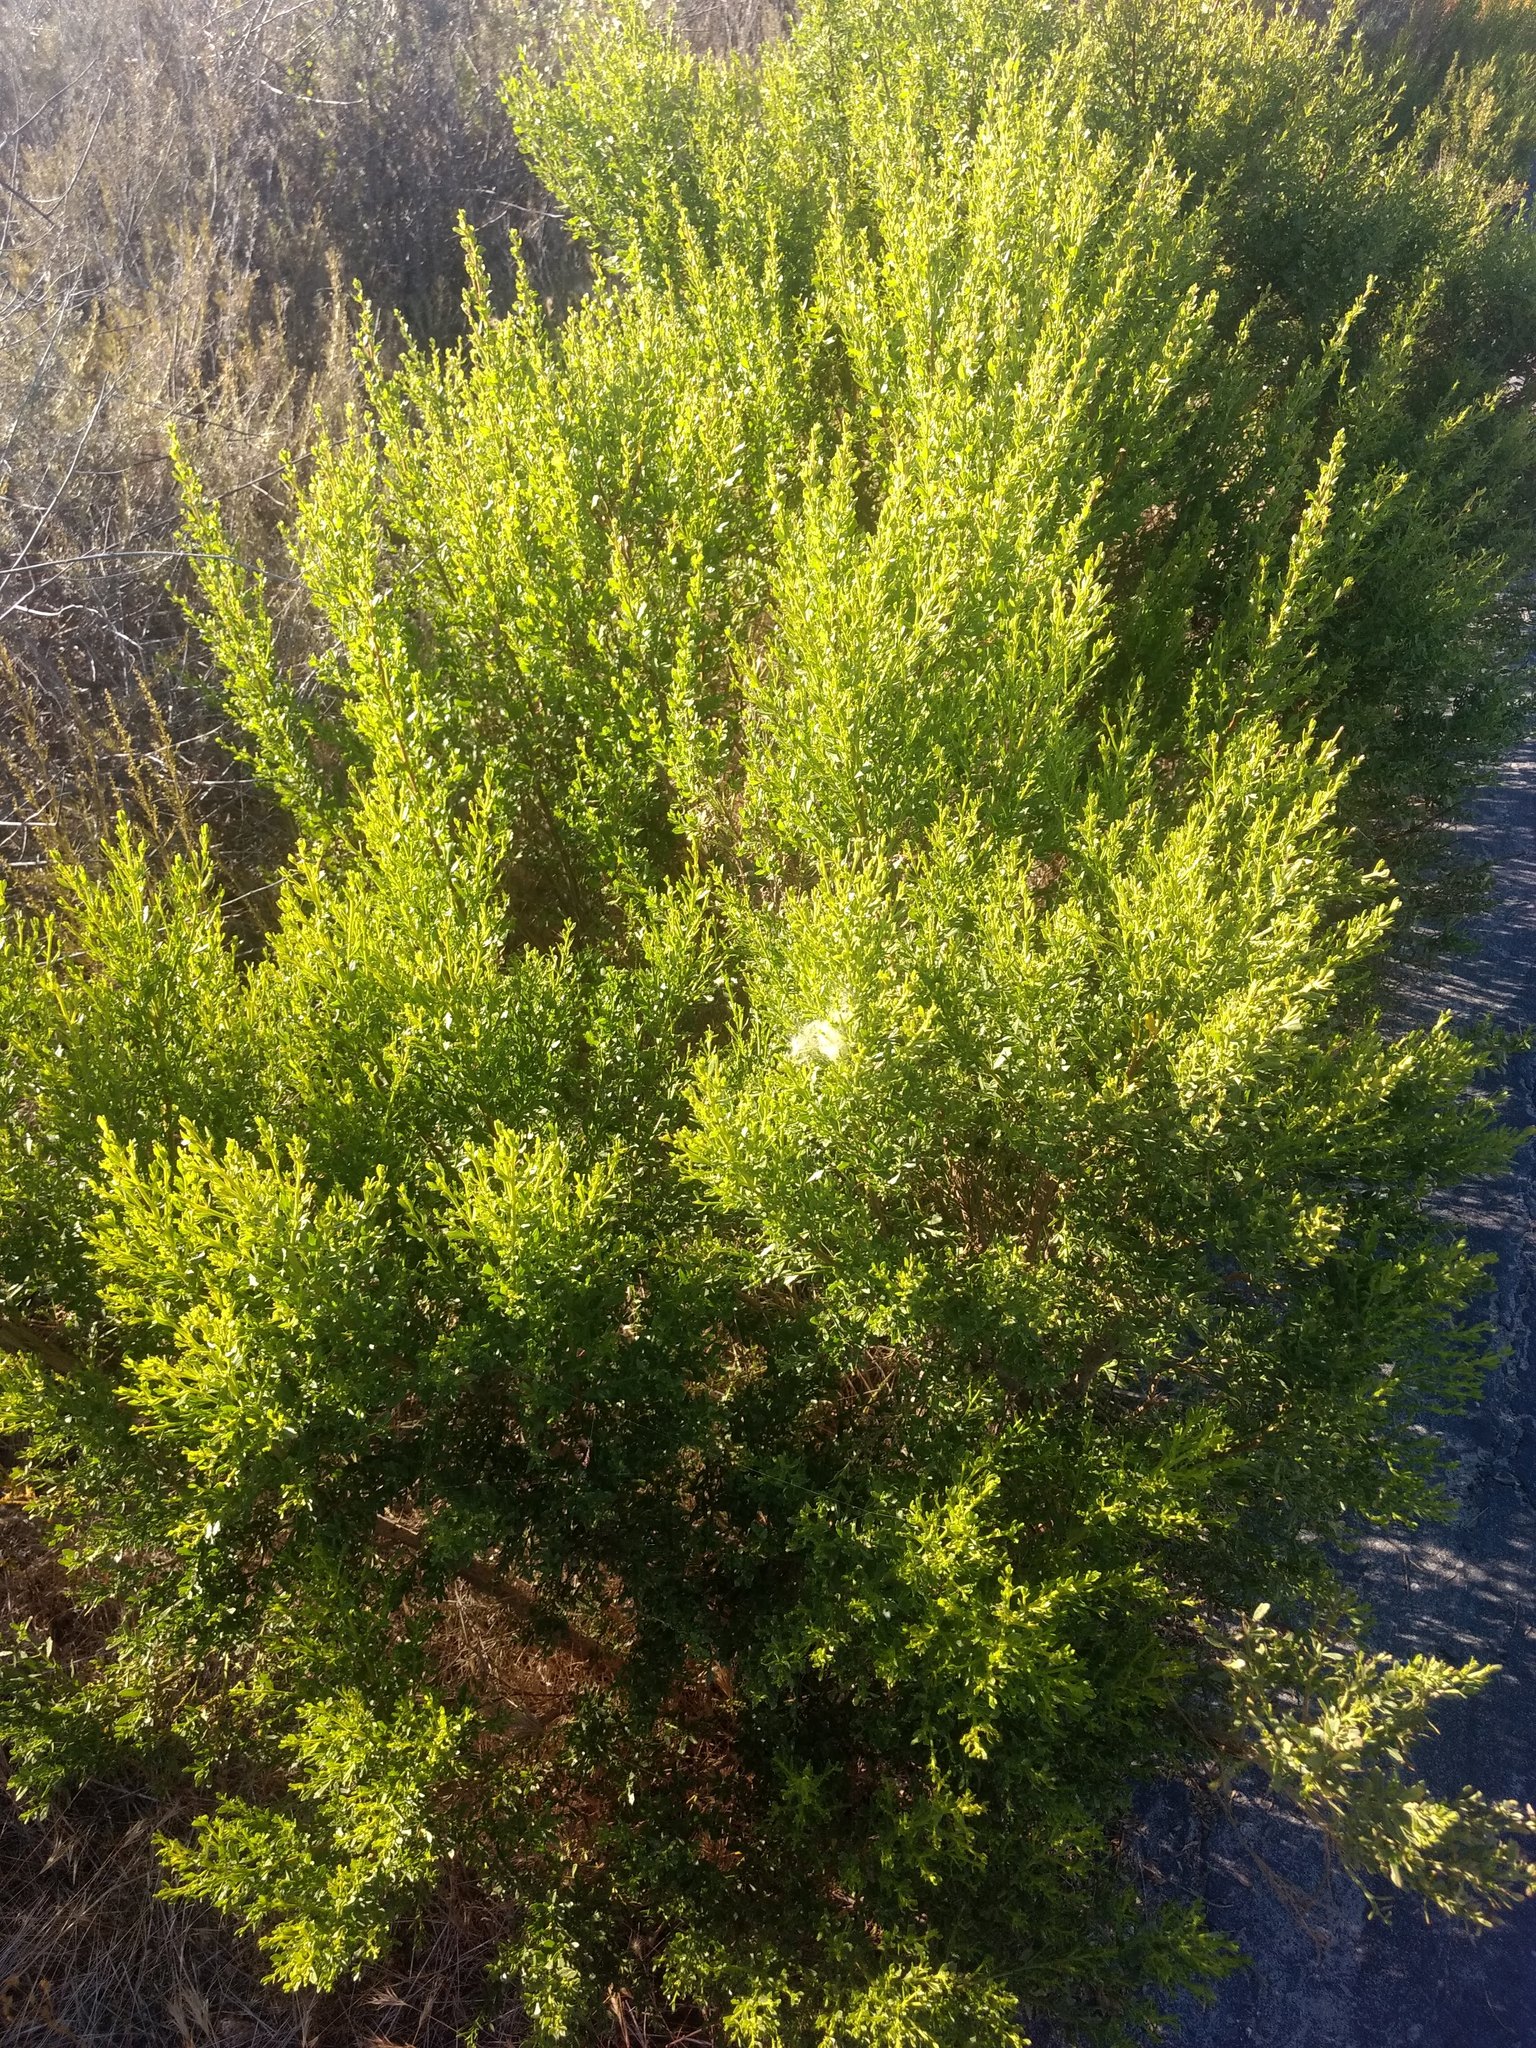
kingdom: Plantae
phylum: Tracheophyta
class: Magnoliopsida
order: Asterales
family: Asteraceae
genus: Baccharis
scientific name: Baccharis pilularis
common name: Coyotebrush
